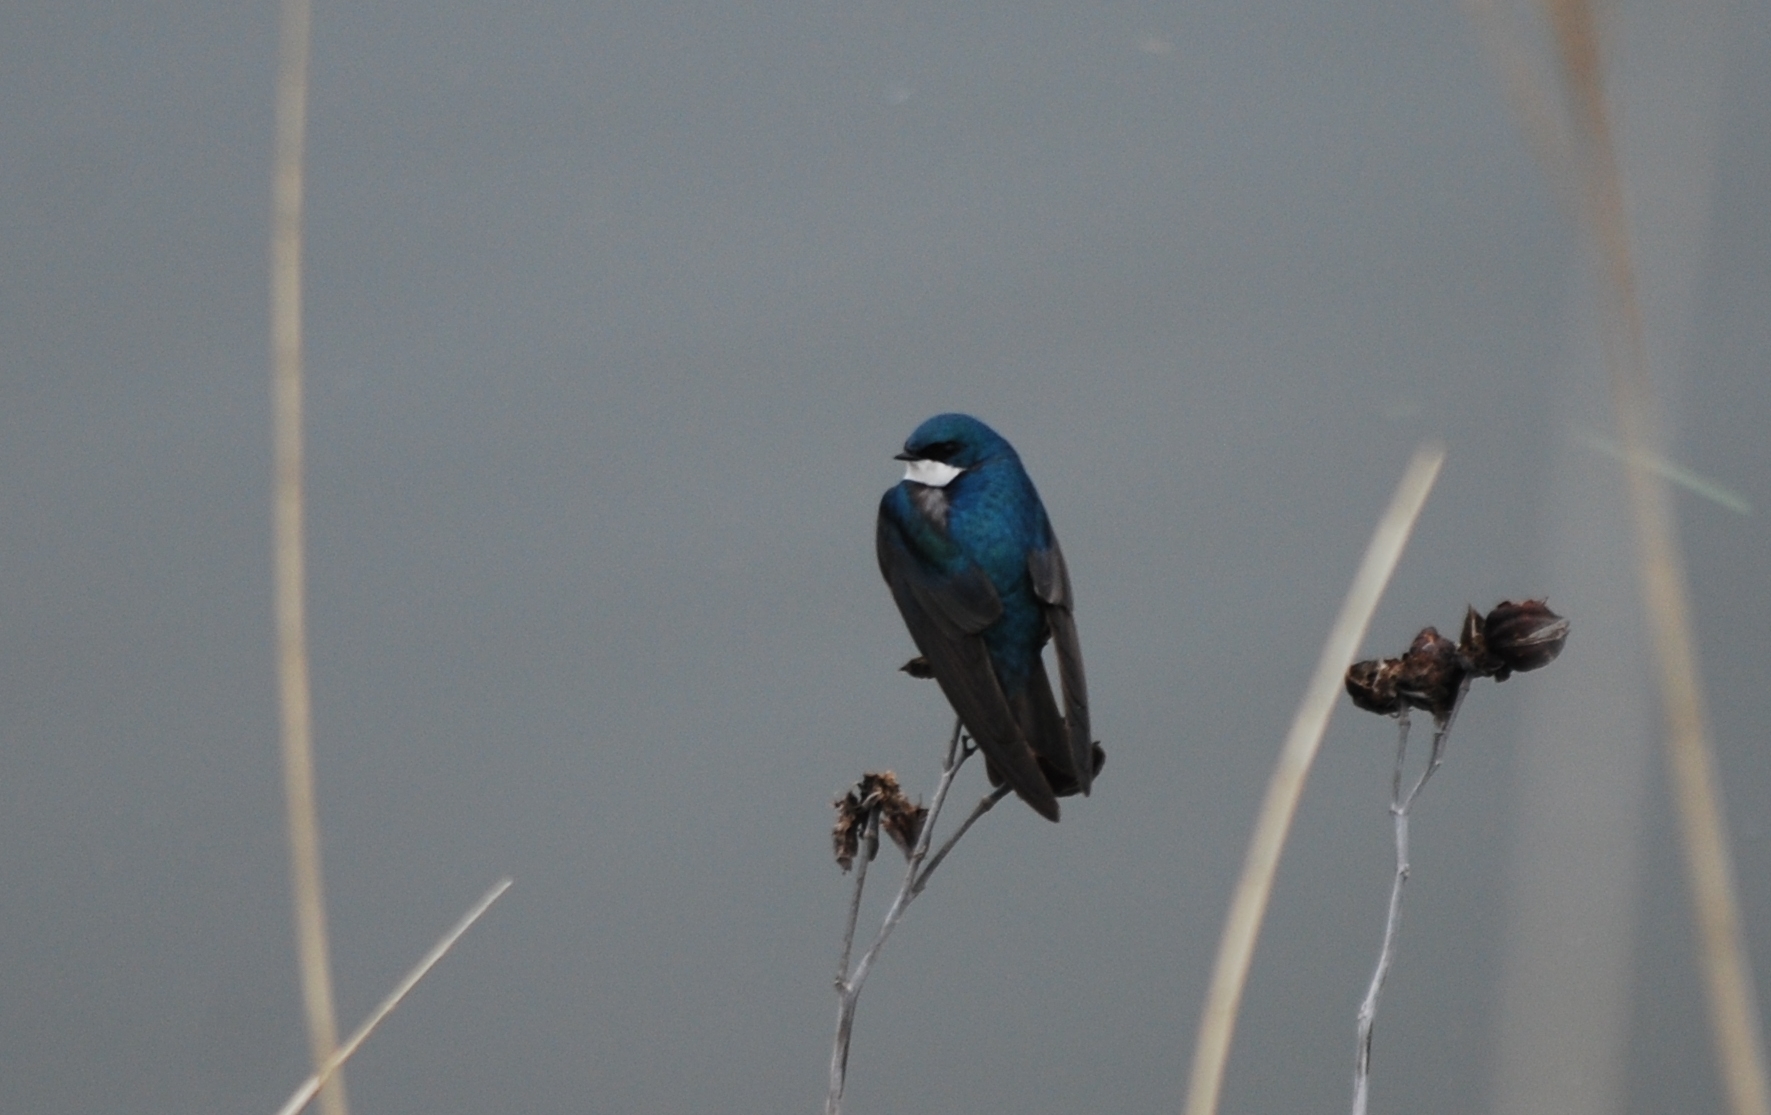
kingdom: Animalia
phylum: Chordata
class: Aves
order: Passeriformes
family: Hirundinidae
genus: Tachycineta
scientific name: Tachycineta bicolor
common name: Tree swallow
